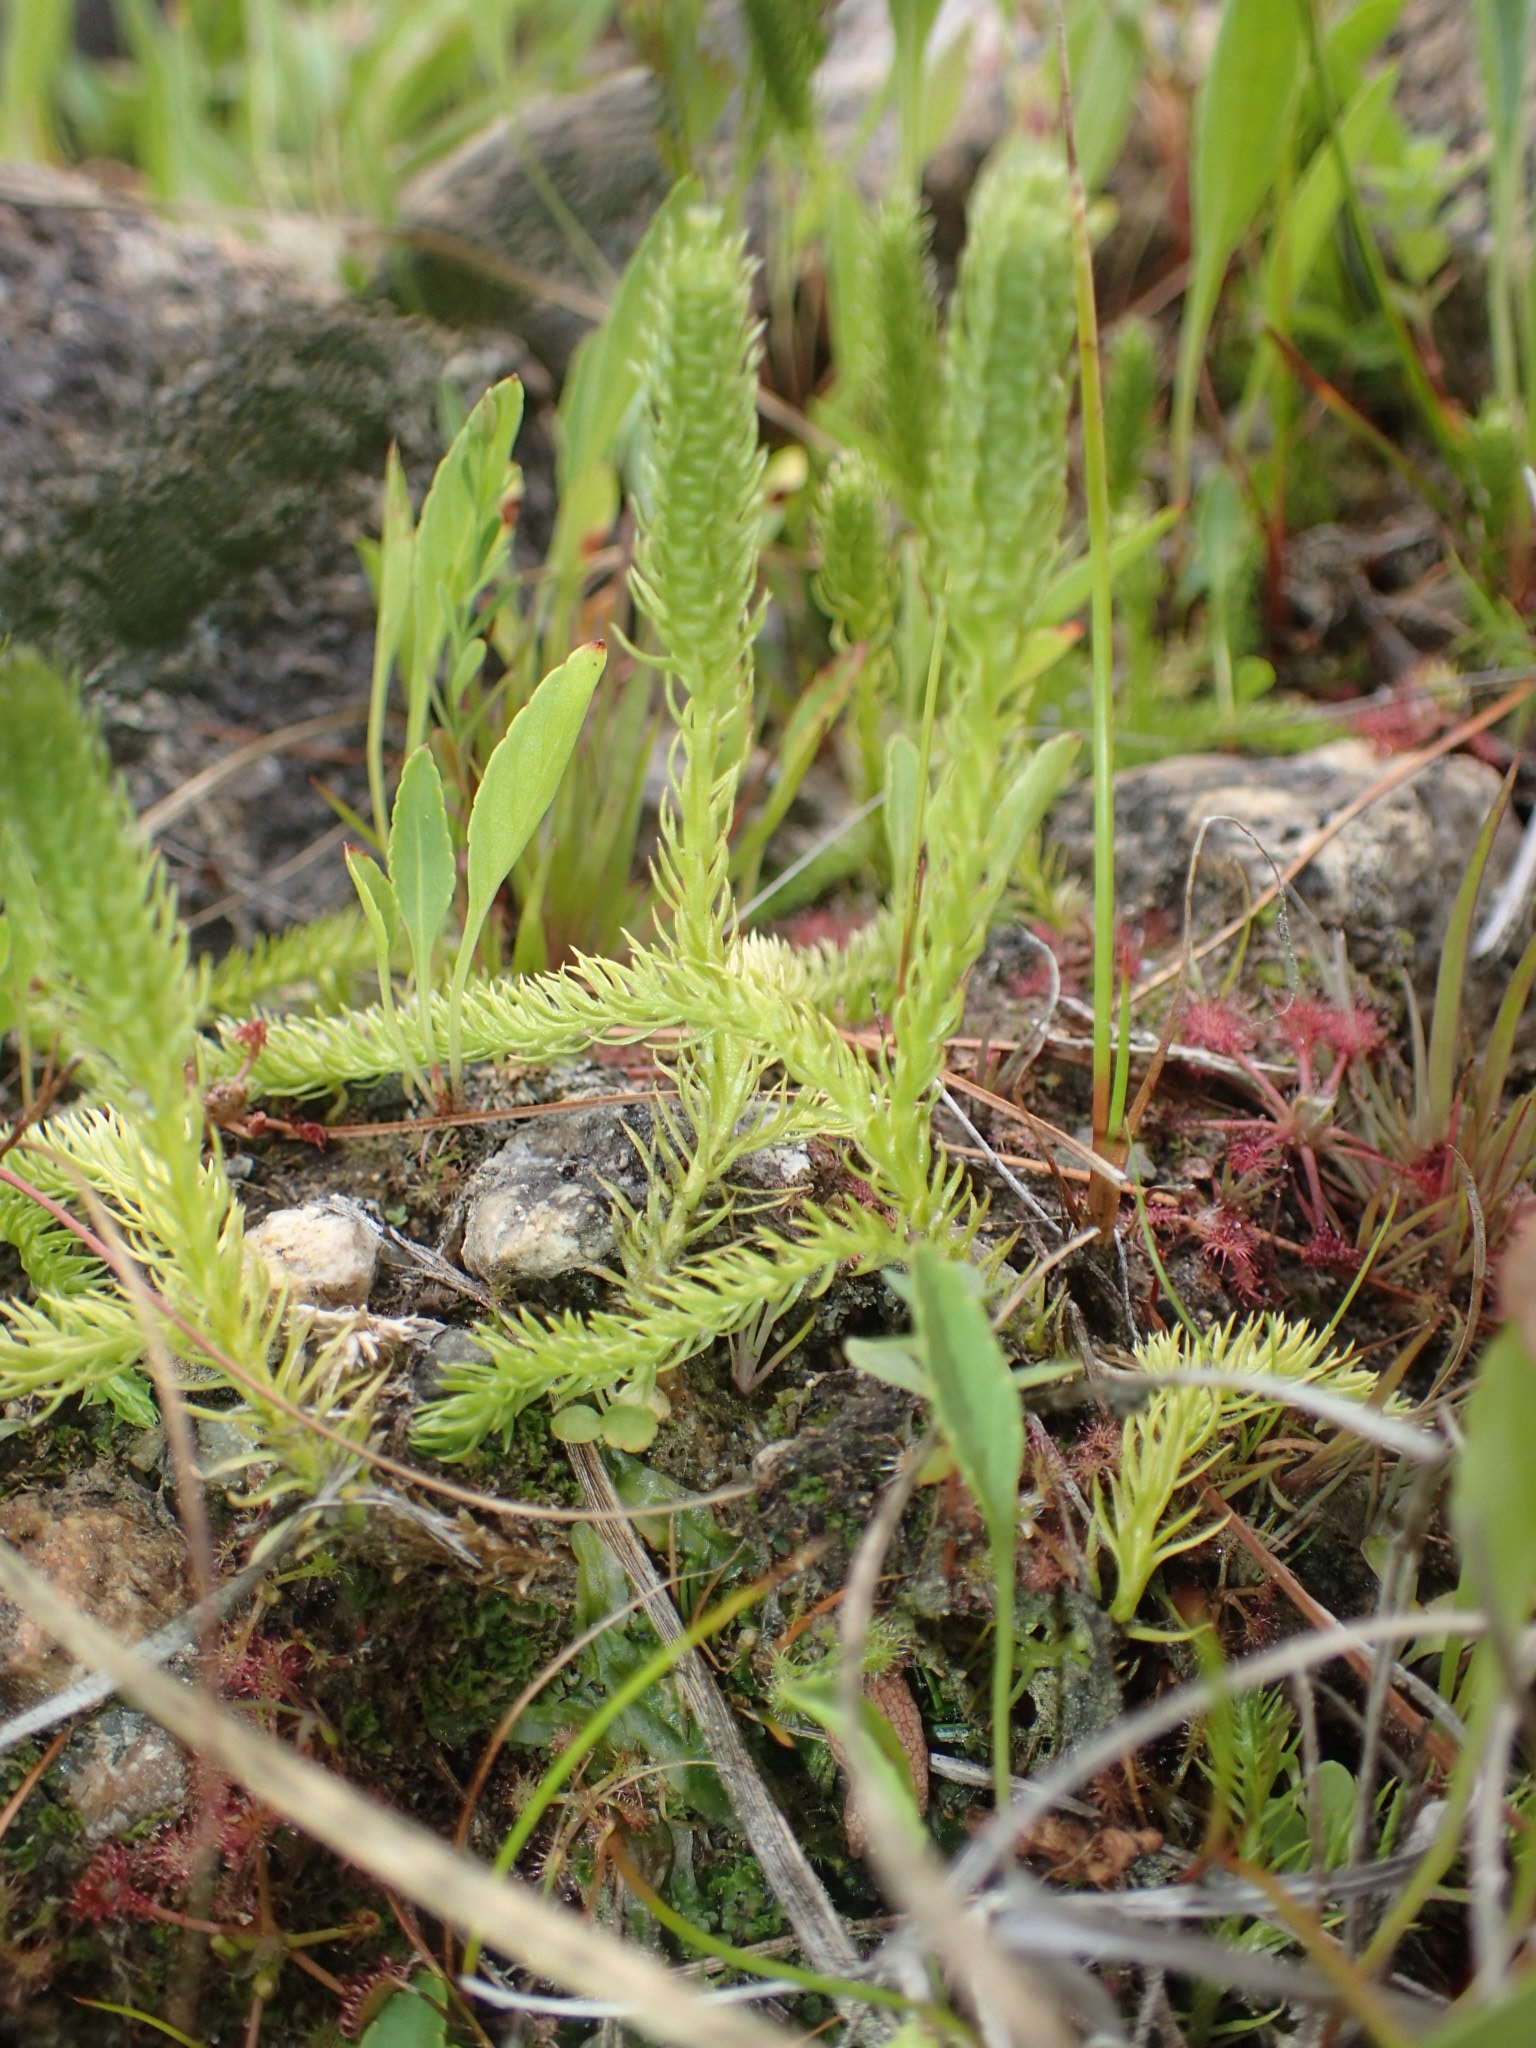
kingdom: Plantae
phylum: Tracheophyta
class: Lycopodiopsida
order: Lycopodiales
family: Lycopodiaceae
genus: Lycopodiella
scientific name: Lycopodiella inundata
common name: Marsh clubmoss
